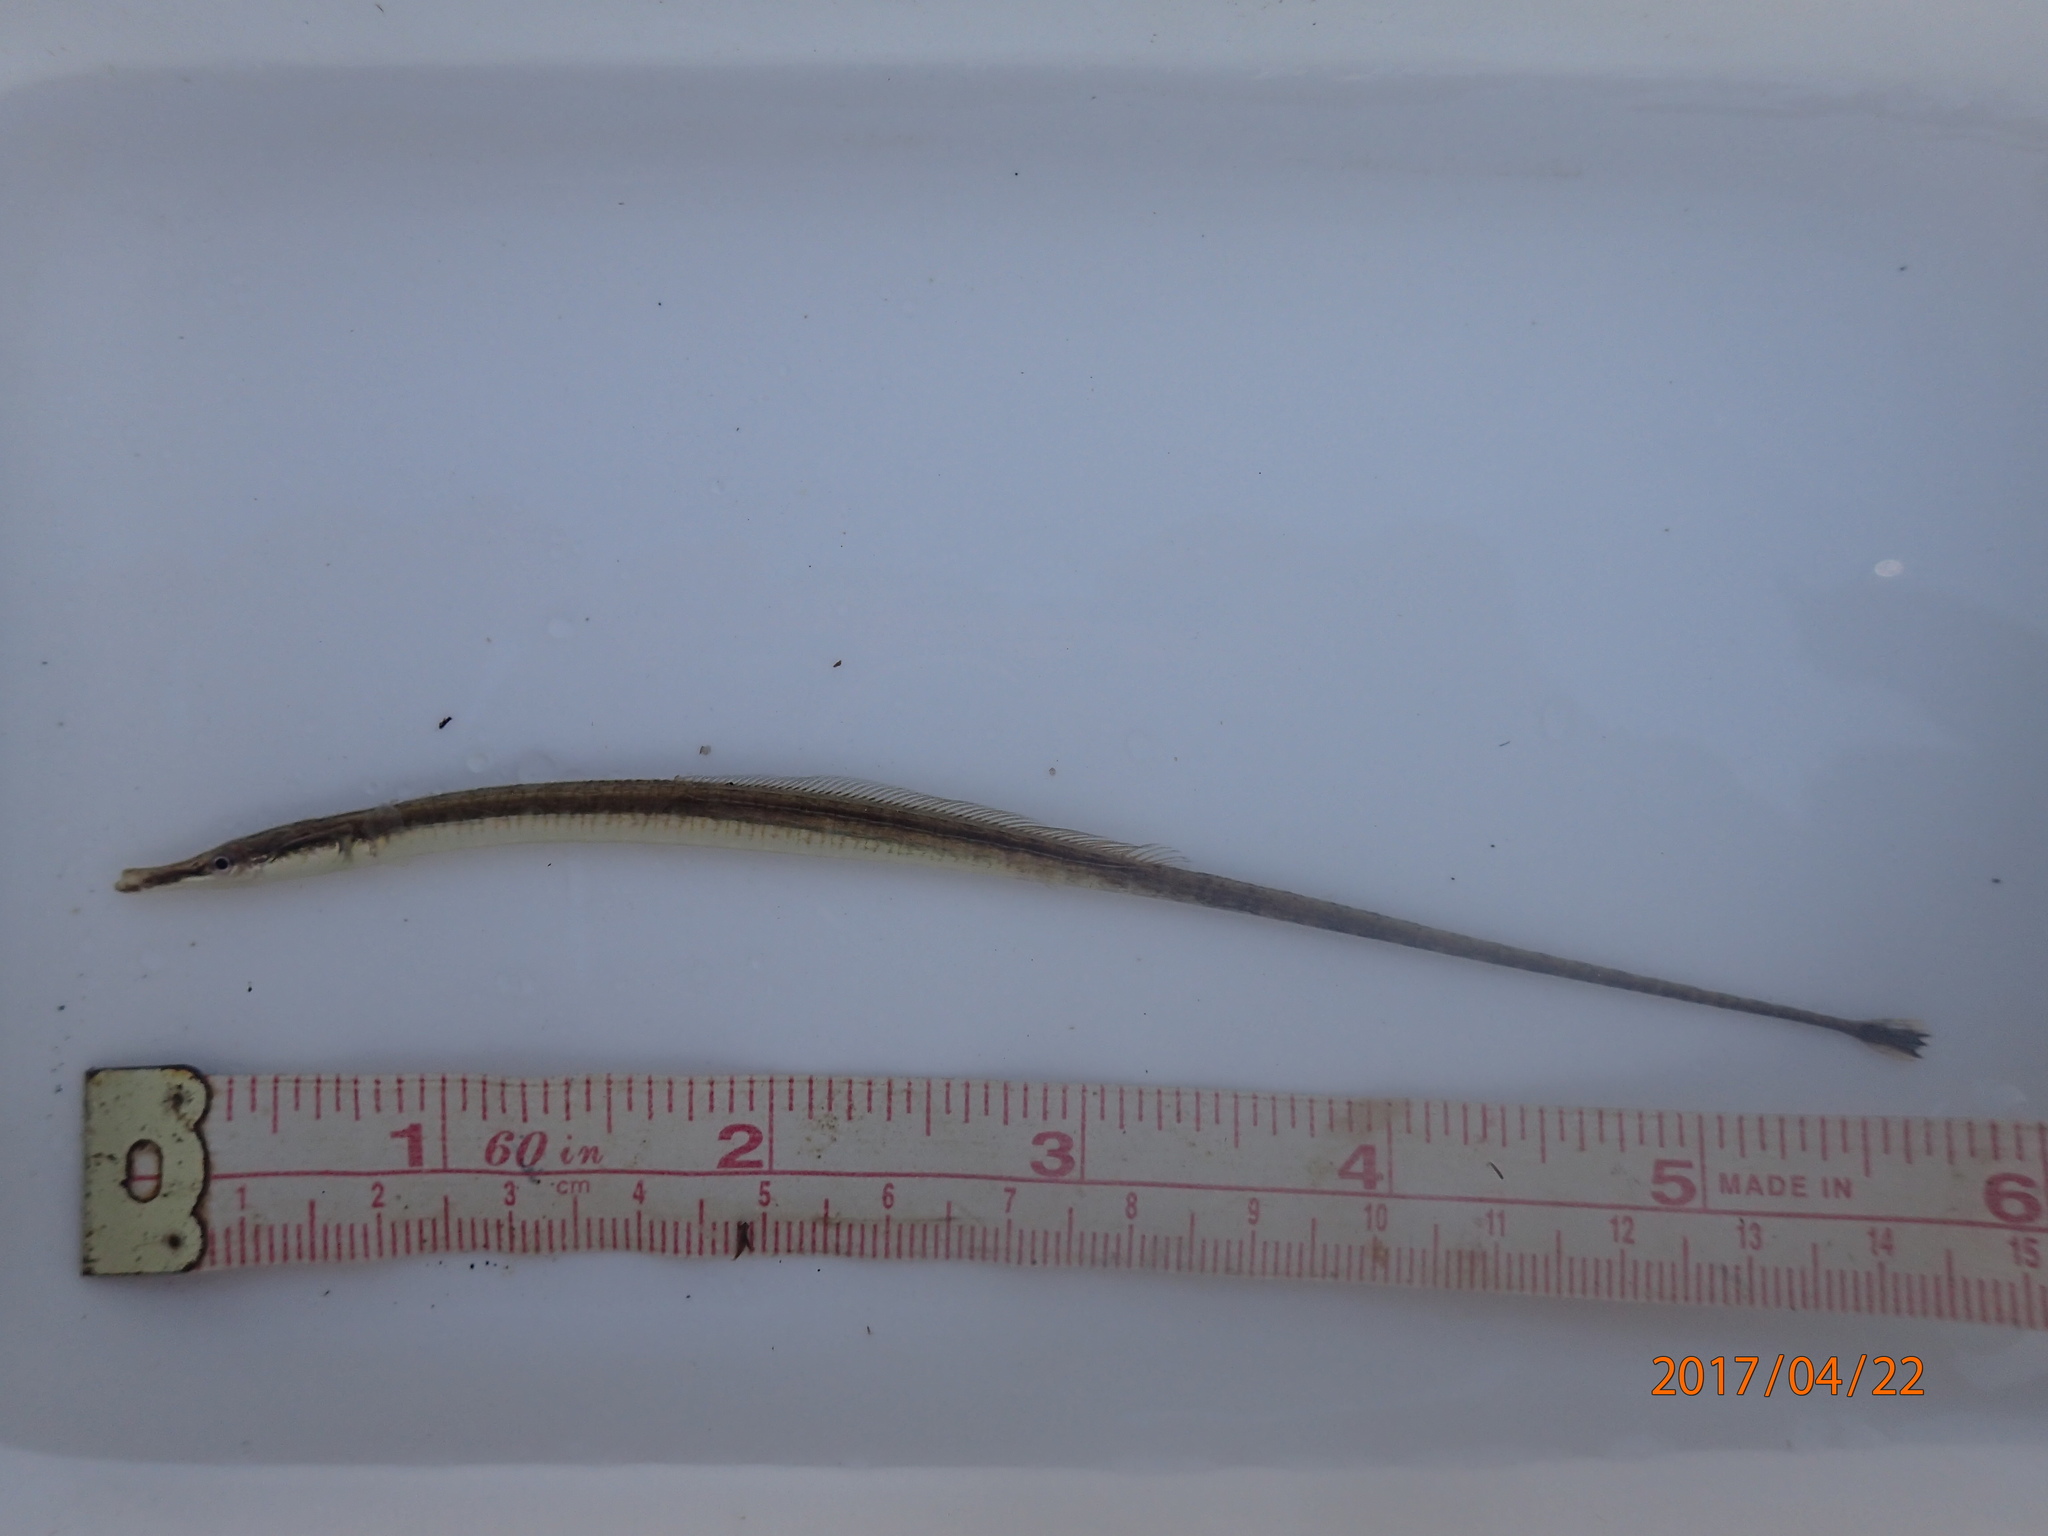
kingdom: Animalia
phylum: Chordata
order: Syngnathiformes
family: Syngnathidae
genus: Microphis
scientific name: Microphis fluviatilis
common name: Freshwater pipefish
